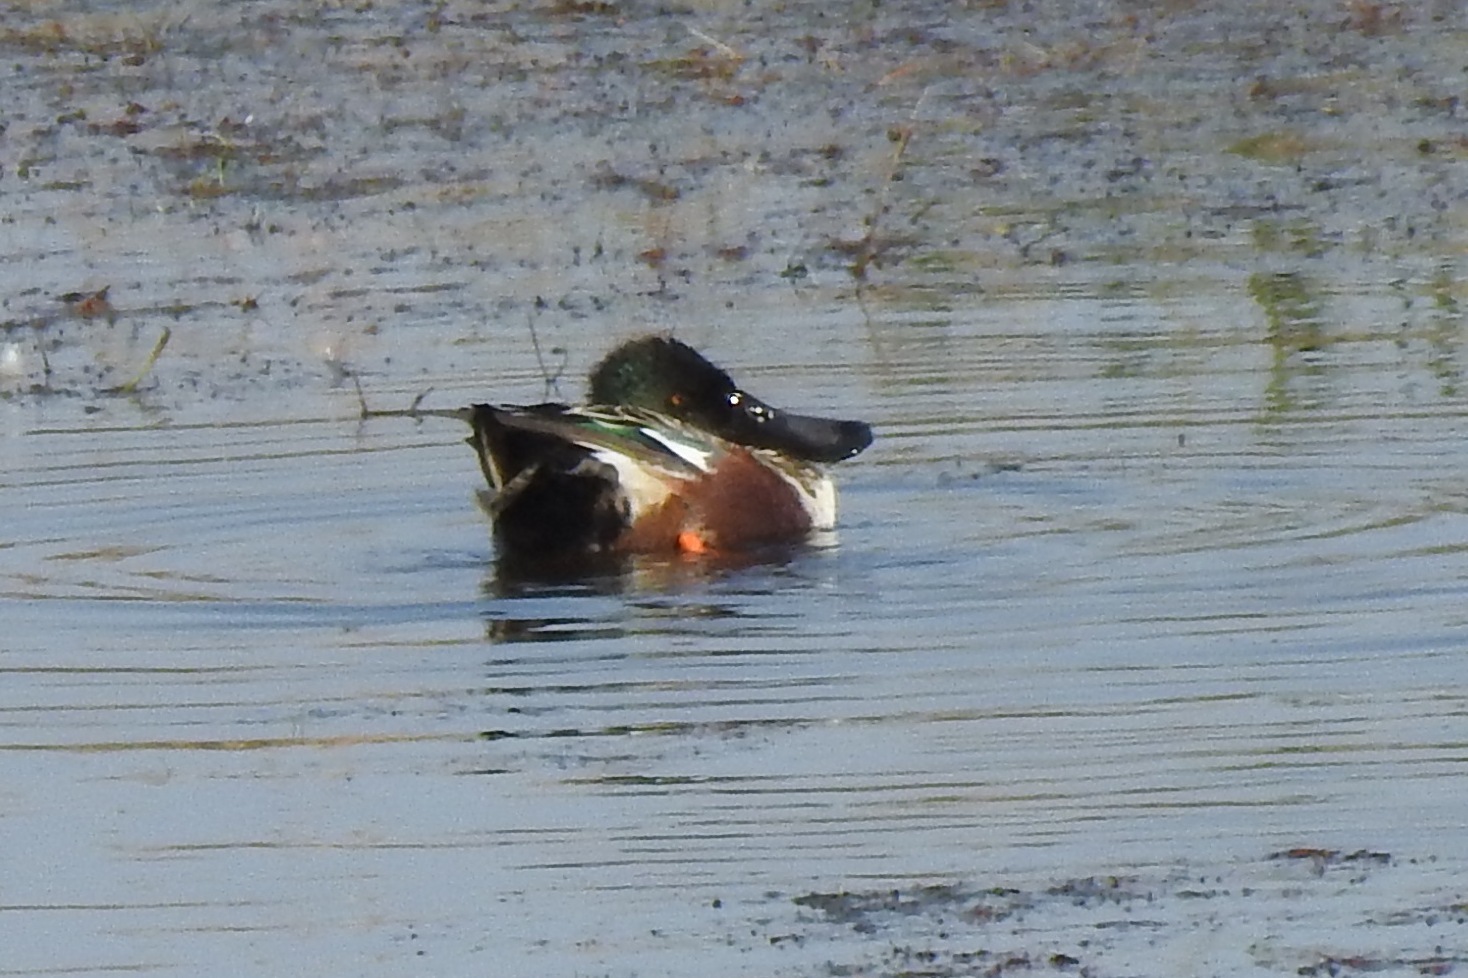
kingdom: Animalia
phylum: Chordata
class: Aves
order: Anseriformes
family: Anatidae
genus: Spatula
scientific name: Spatula clypeata
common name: Northern shoveler
